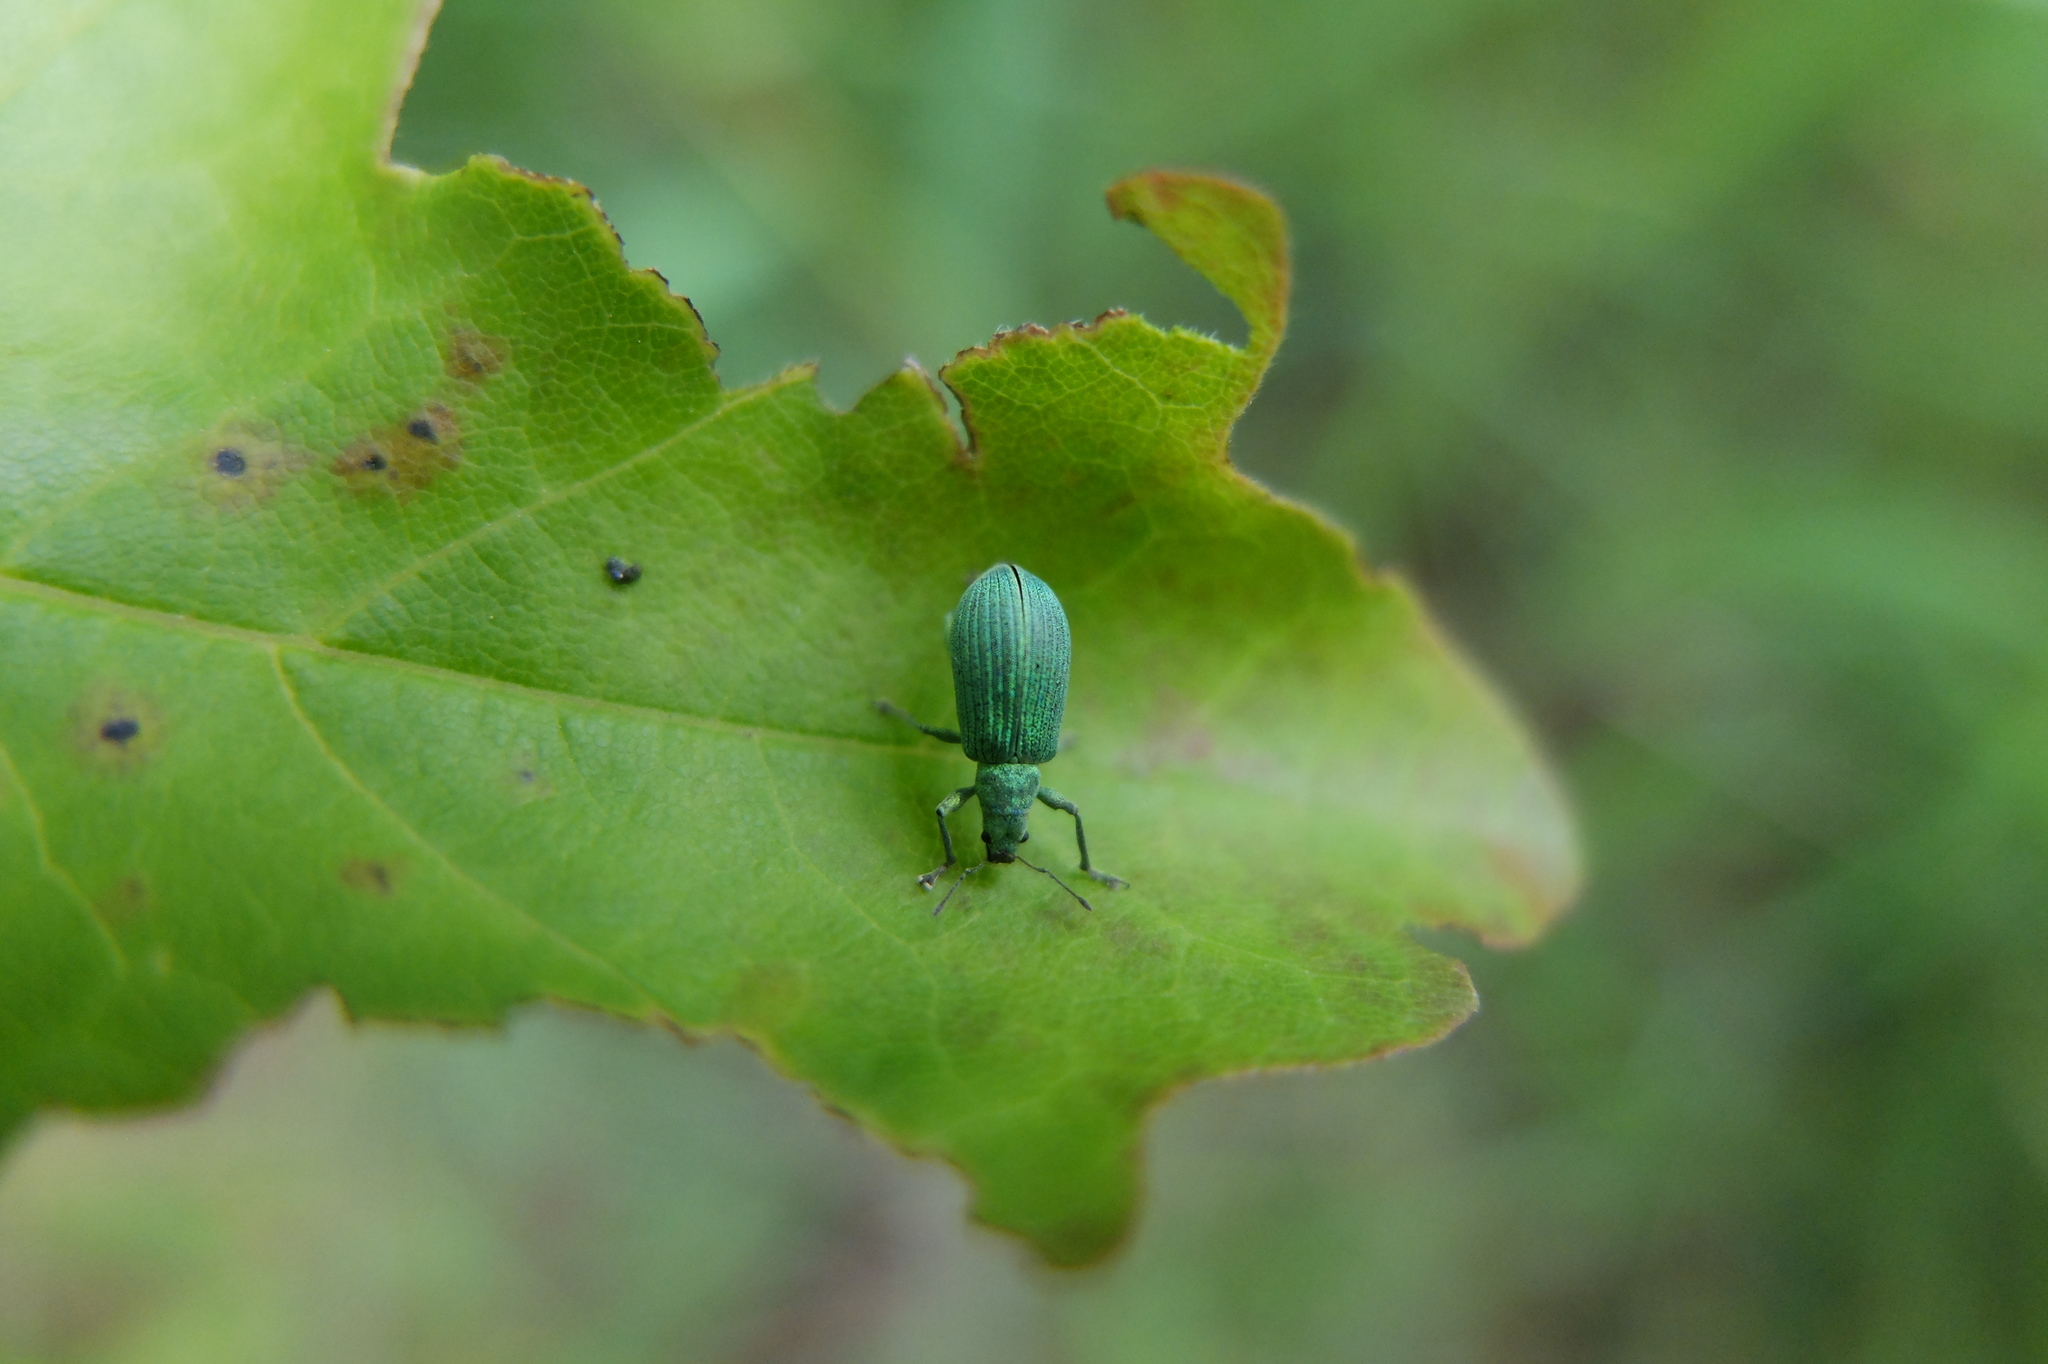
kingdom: Animalia
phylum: Arthropoda
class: Insecta
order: Coleoptera
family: Curculionidae
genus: Polydrusus
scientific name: Polydrusus planifrons
